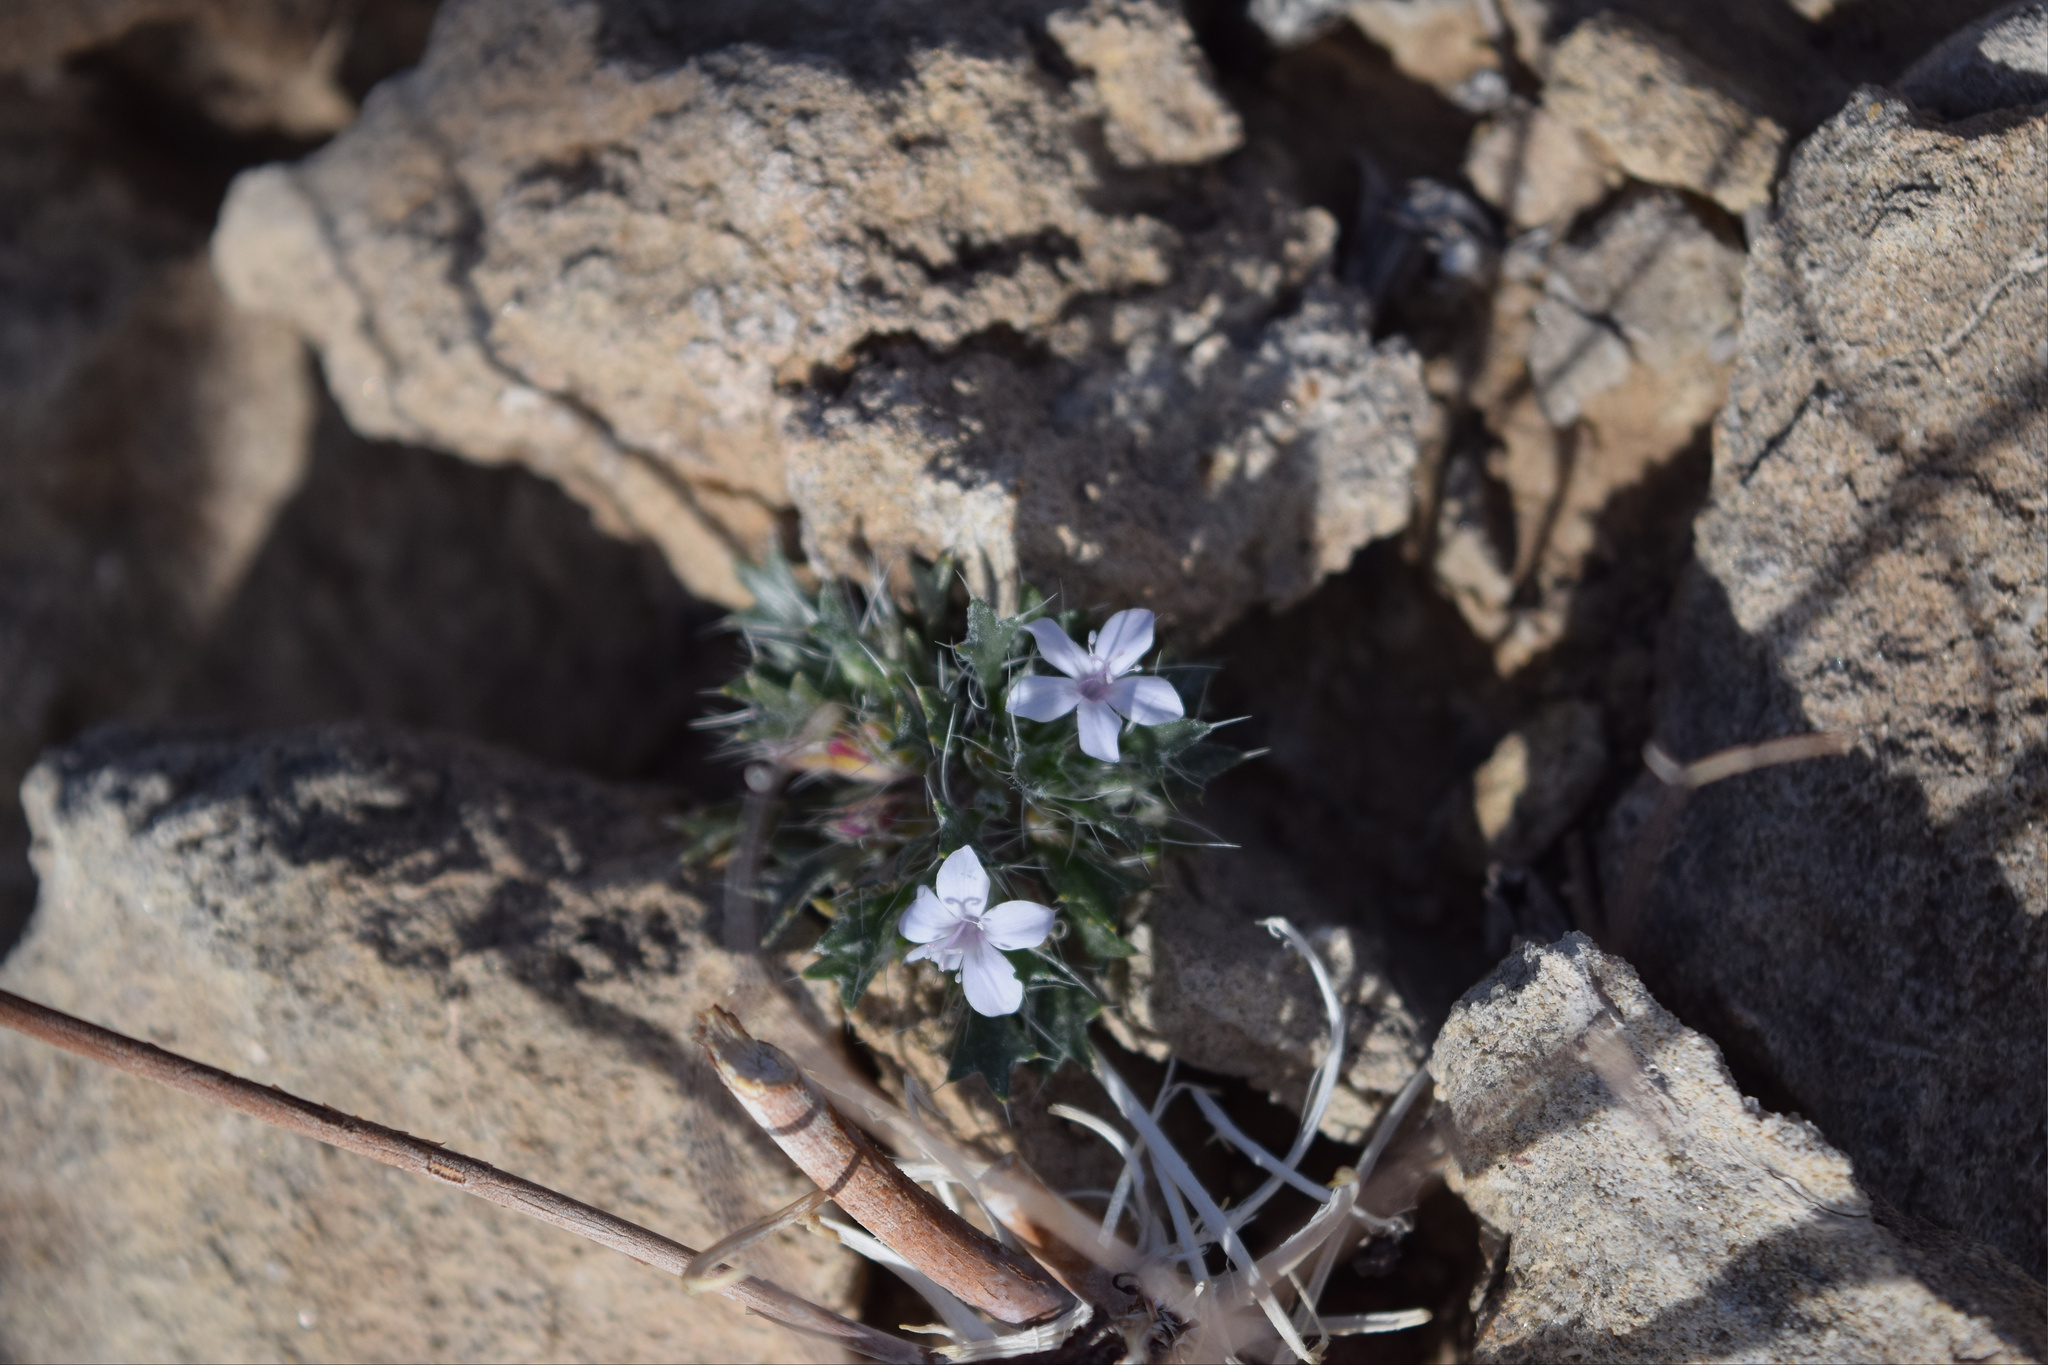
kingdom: Plantae
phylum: Tracheophyta
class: Magnoliopsida
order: Ericales
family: Polemoniaceae
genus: Langloisia
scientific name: Langloisia setosissima
